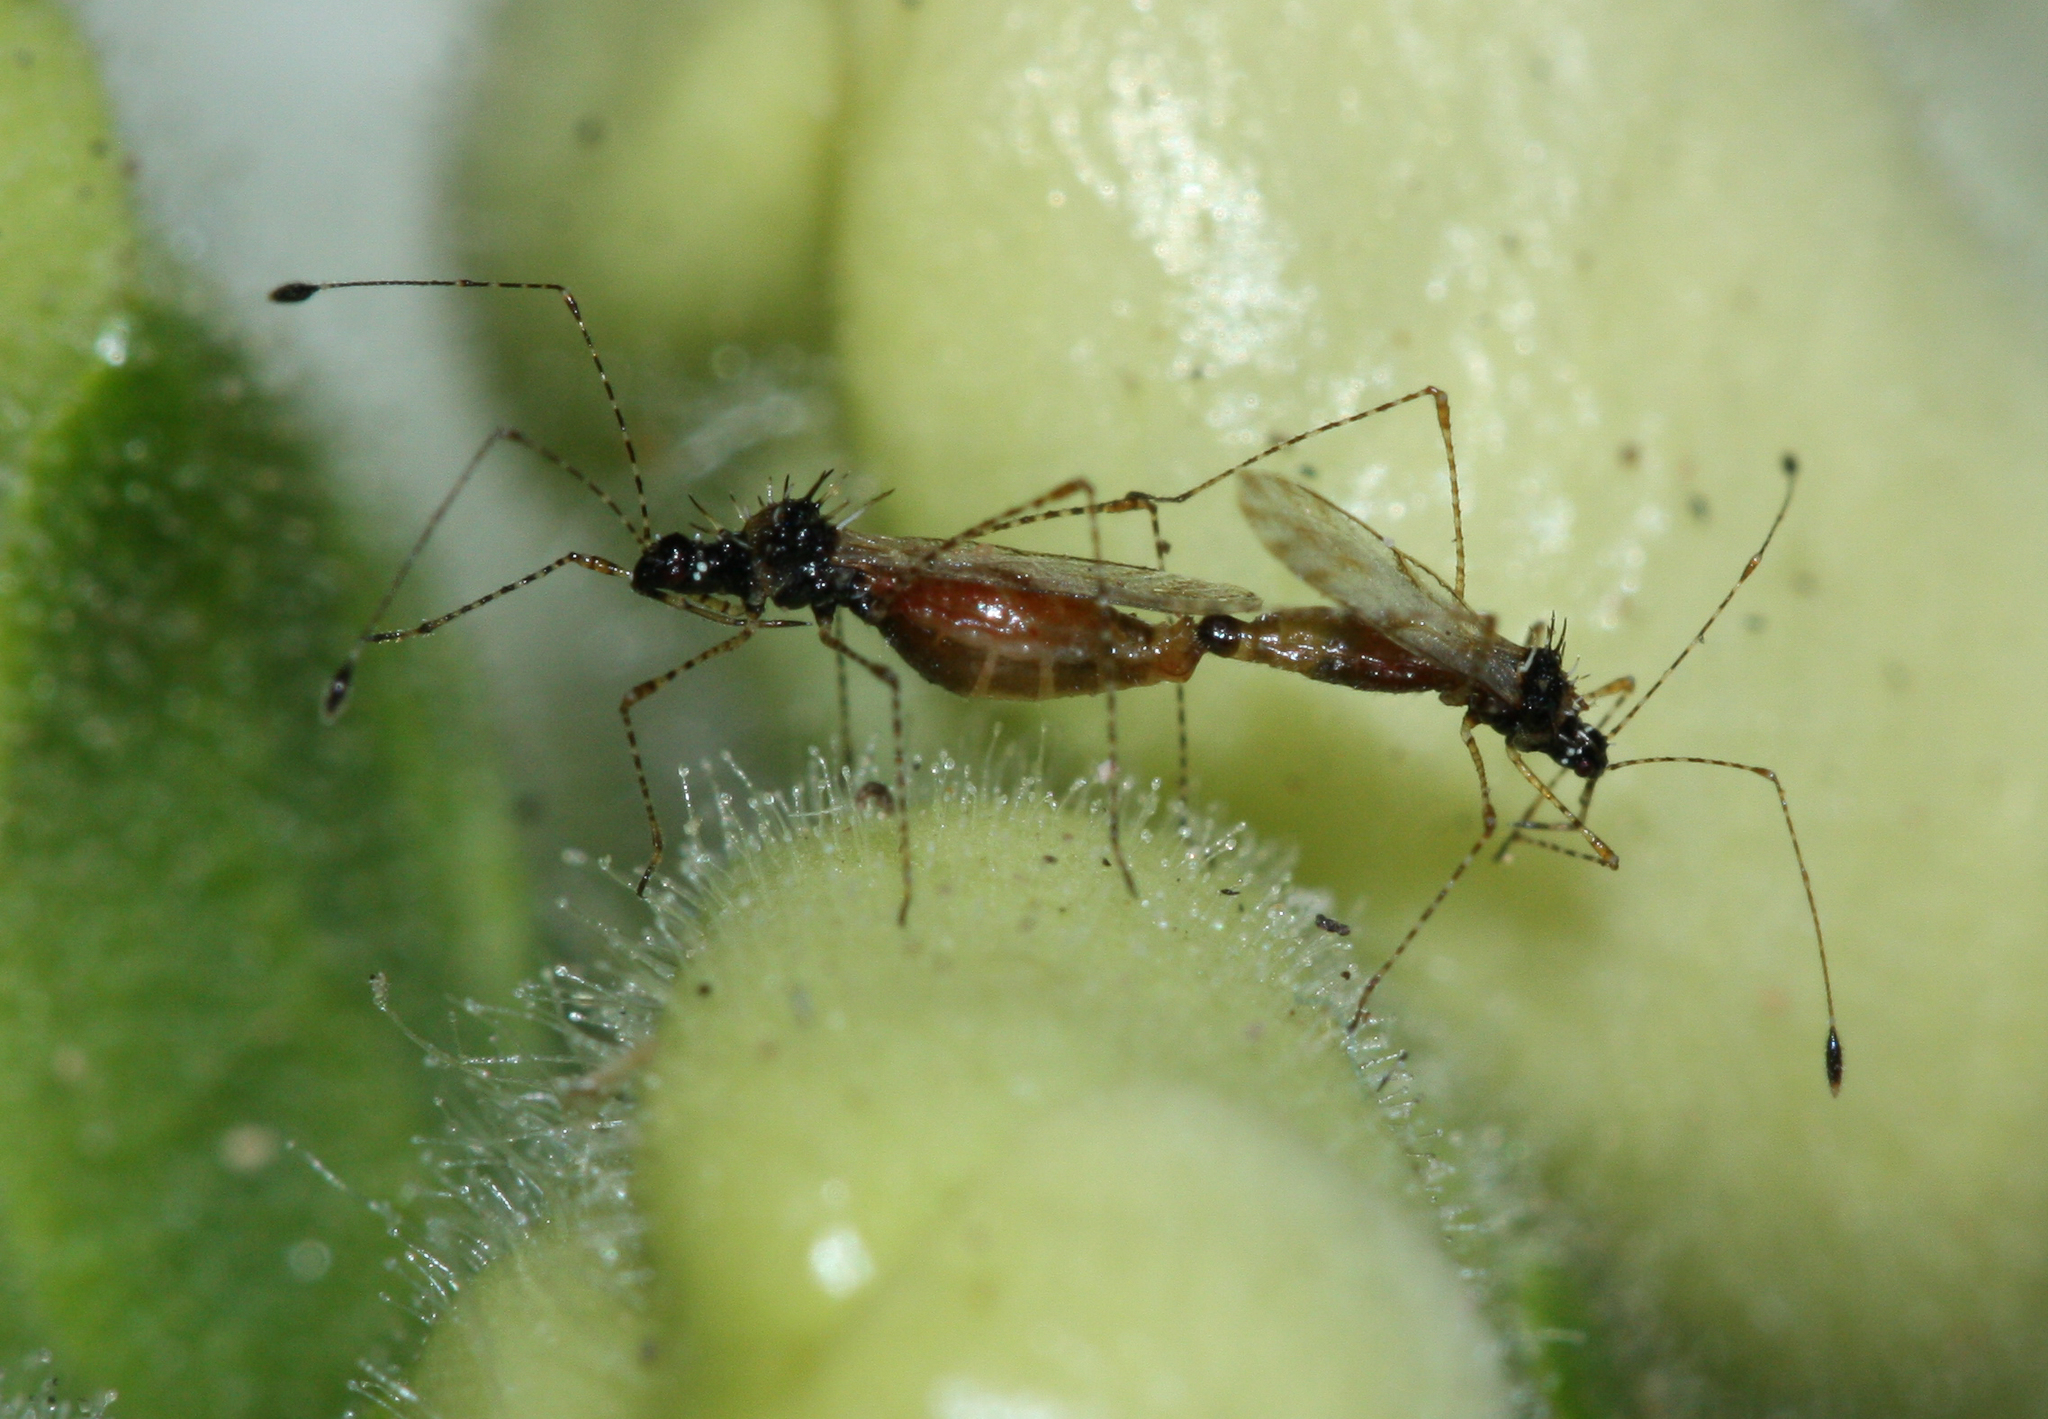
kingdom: Animalia
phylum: Arthropoda
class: Insecta
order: Hemiptera
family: Berytidae
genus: Pronotacantha
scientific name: Pronotacantha annulata
